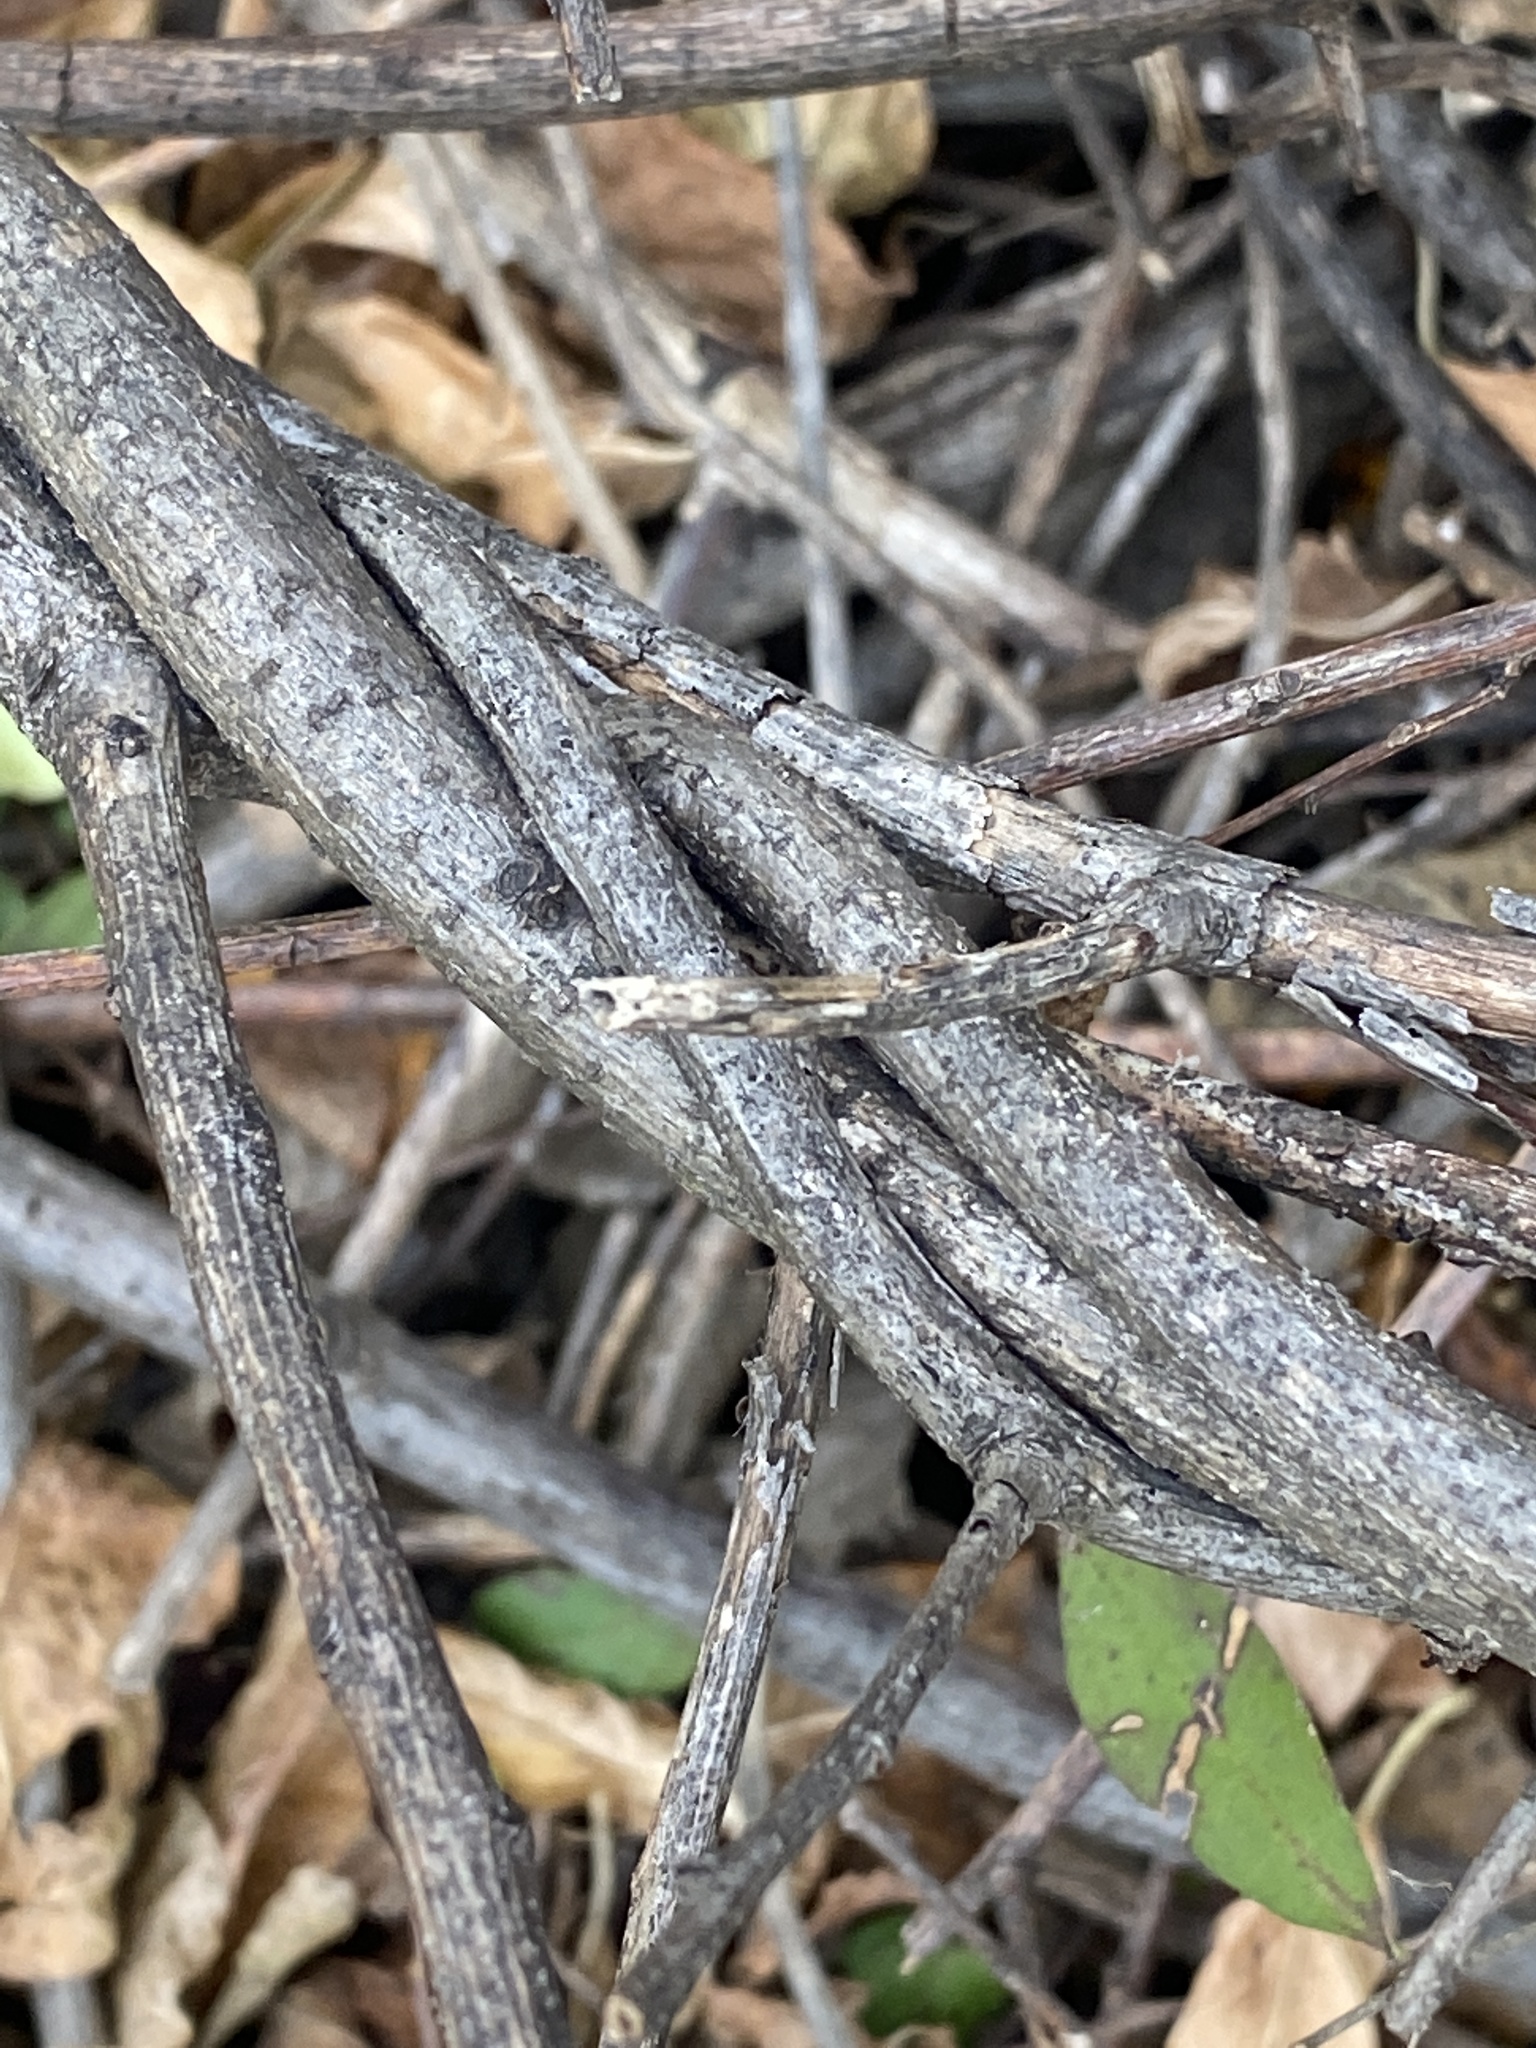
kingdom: Plantae
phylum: Tracheophyta
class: Magnoliopsida
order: Celastrales
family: Celastraceae
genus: Celastrus
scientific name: Celastrus orbiculatus
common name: Oriental bittersweet
